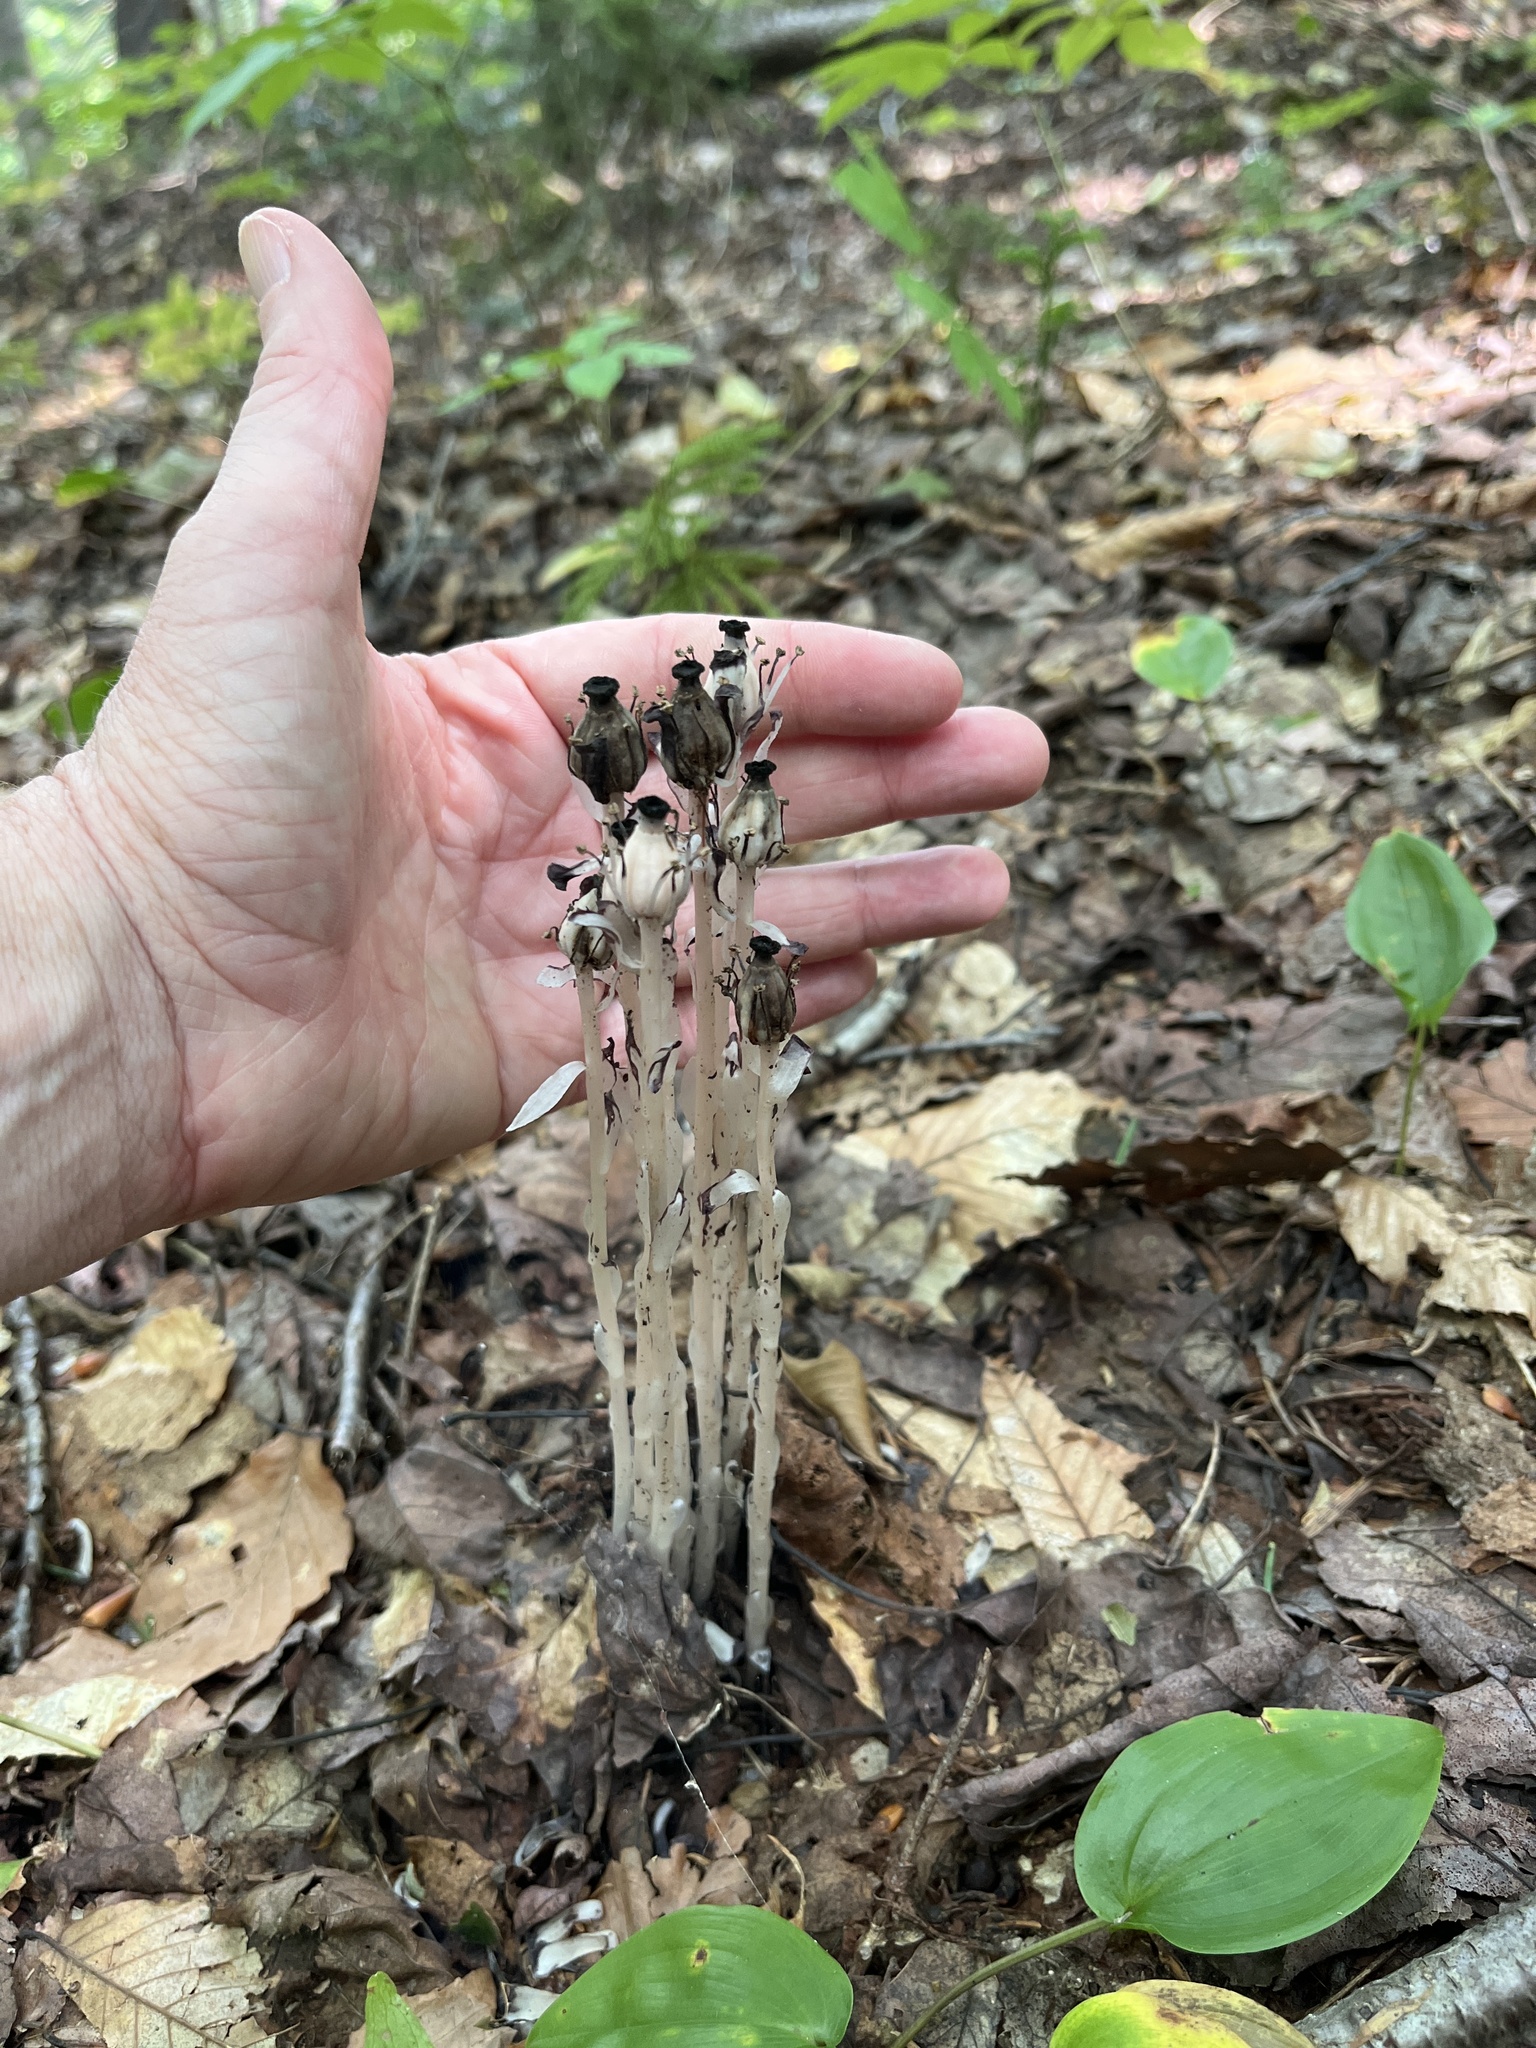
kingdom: Plantae
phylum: Tracheophyta
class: Magnoliopsida
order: Ericales
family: Ericaceae
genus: Monotropa
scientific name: Monotropa uniflora
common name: Convulsion root
